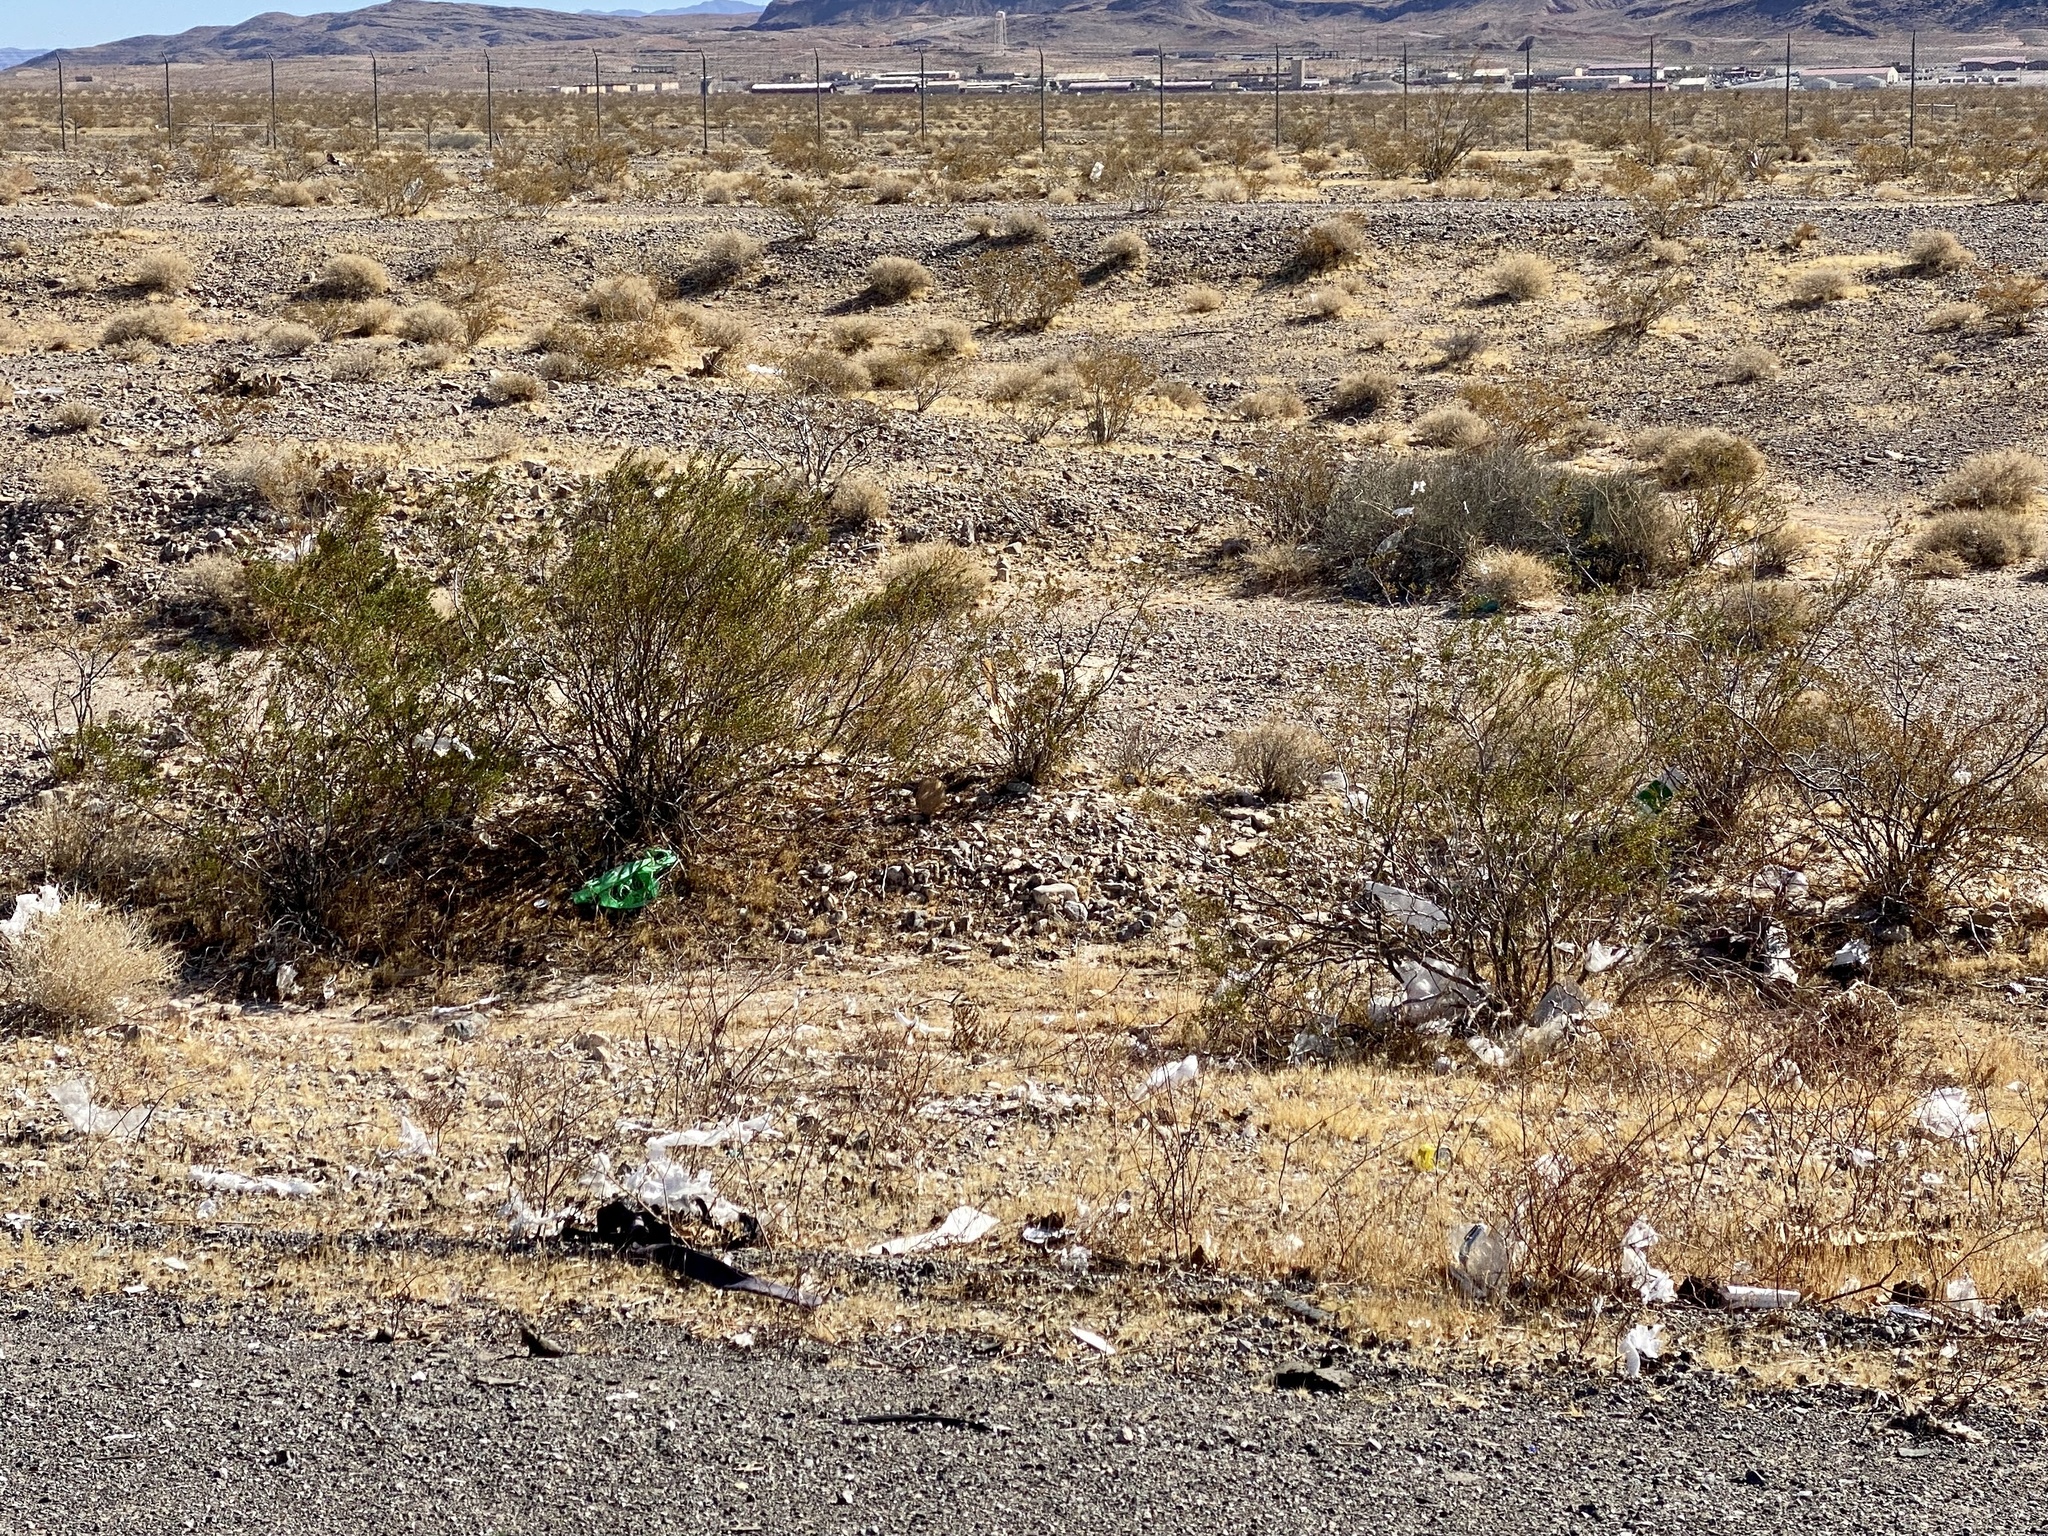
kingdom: Plantae
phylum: Tracheophyta
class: Magnoliopsida
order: Zygophyllales
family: Zygophyllaceae
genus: Larrea
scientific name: Larrea tridentata
